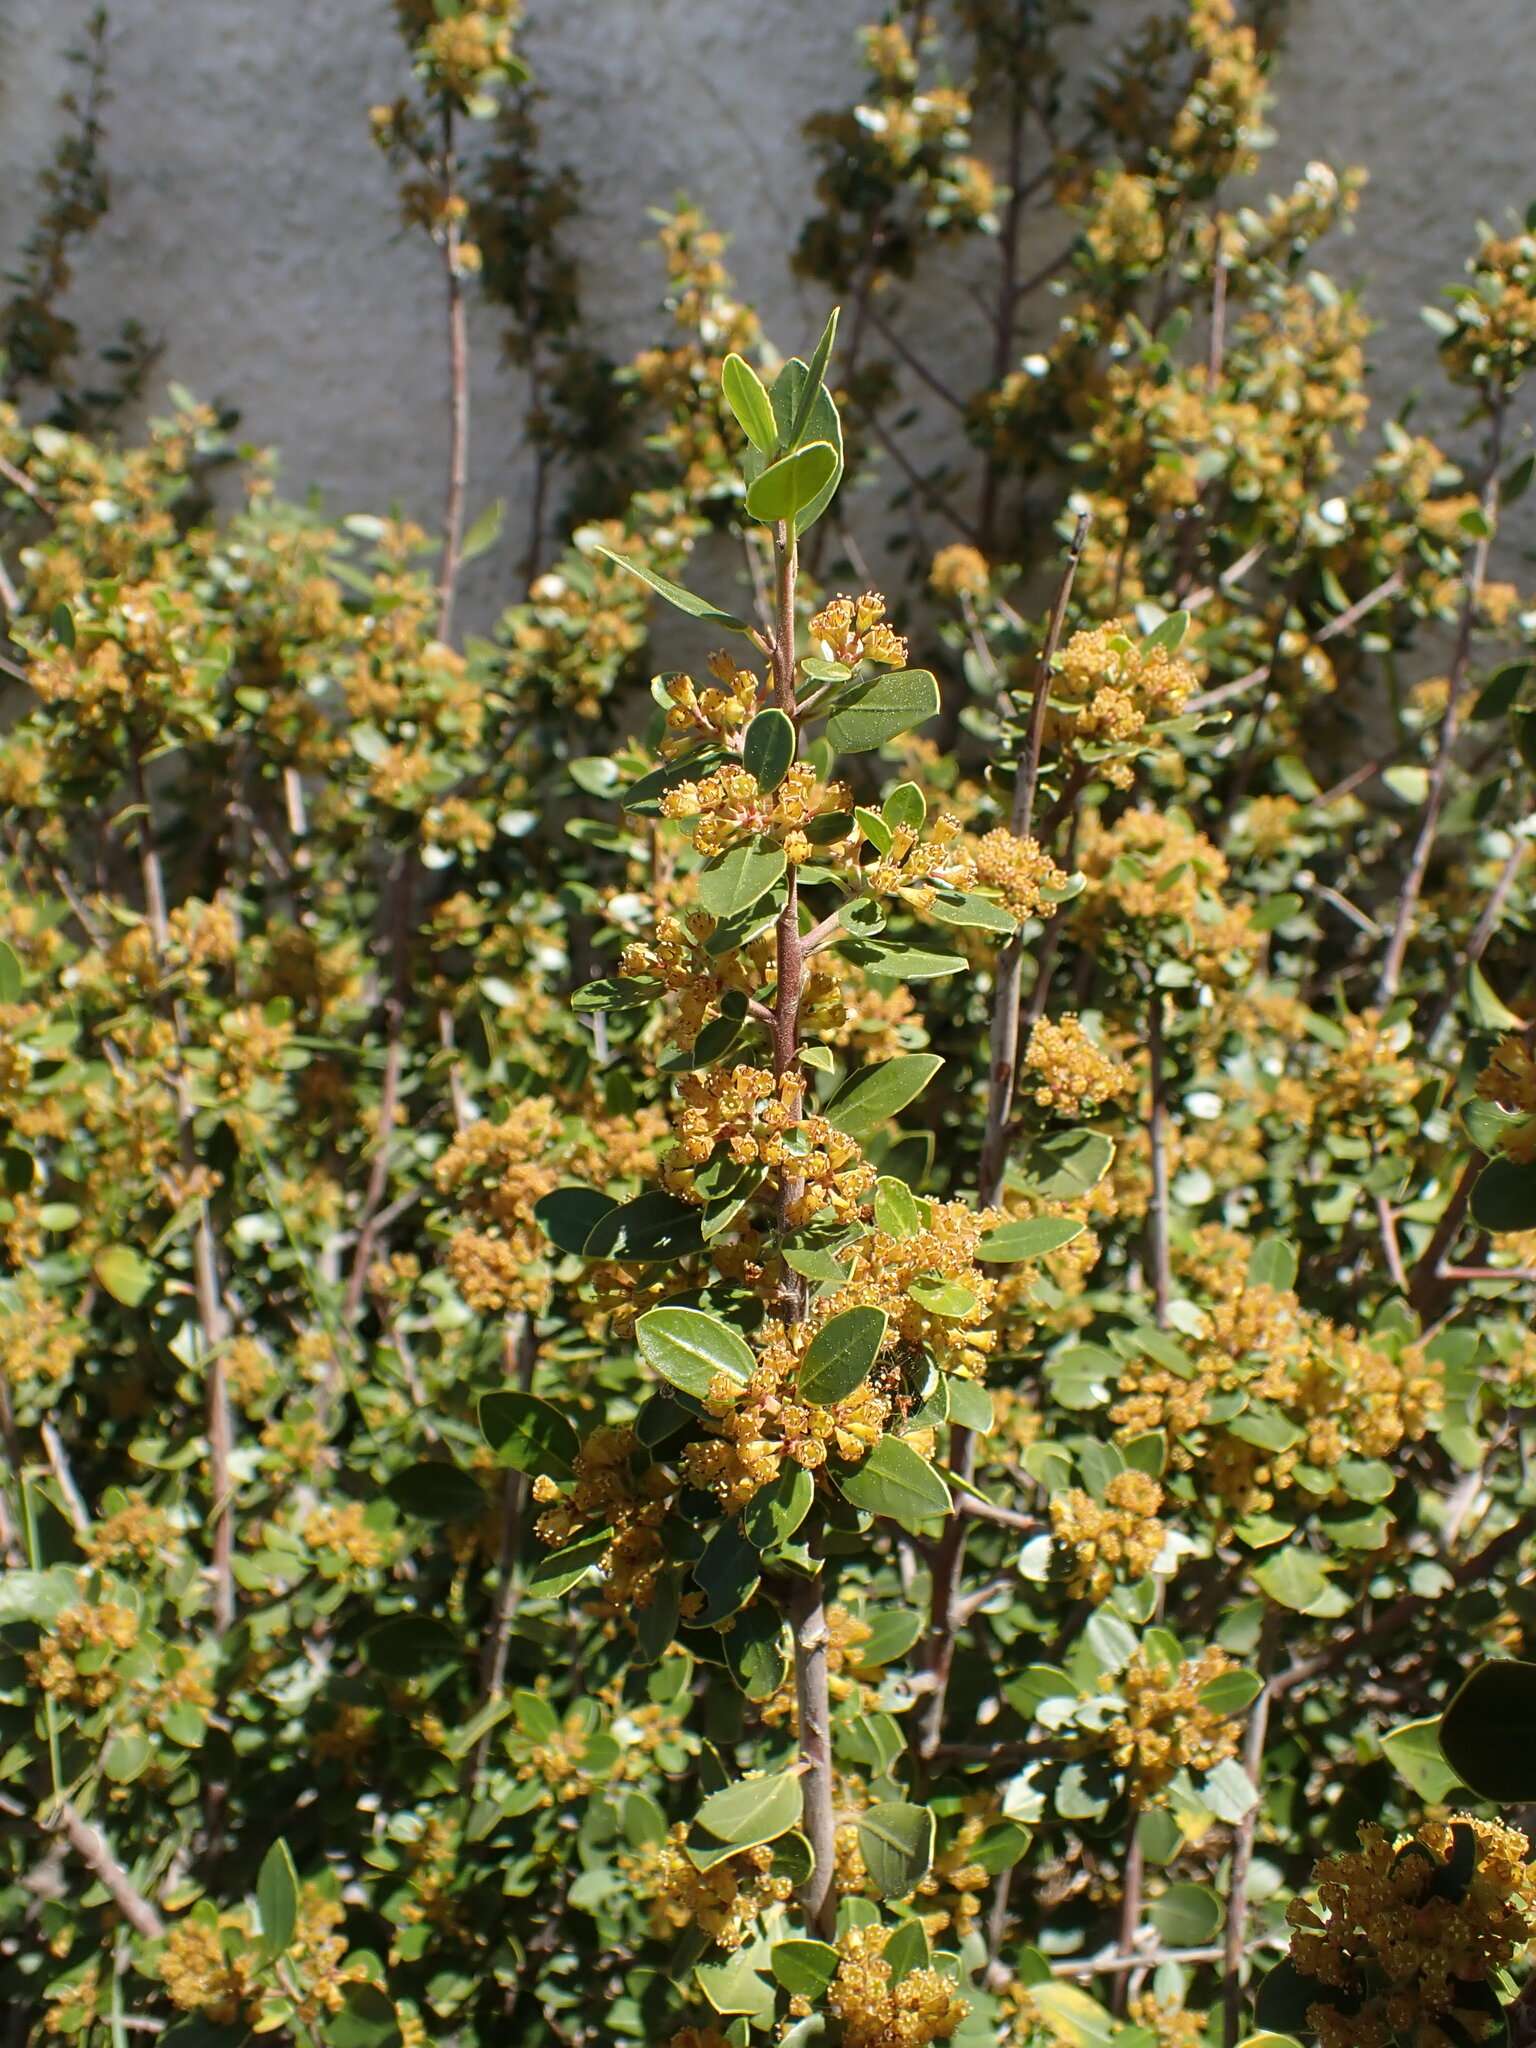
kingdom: Plantae
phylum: Tracheophyta
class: Magnoliopsida
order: Rosales
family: Rhamnaceae
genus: Rhamnus
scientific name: Rhamnus alaternus
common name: Mediterranean buckthorn
